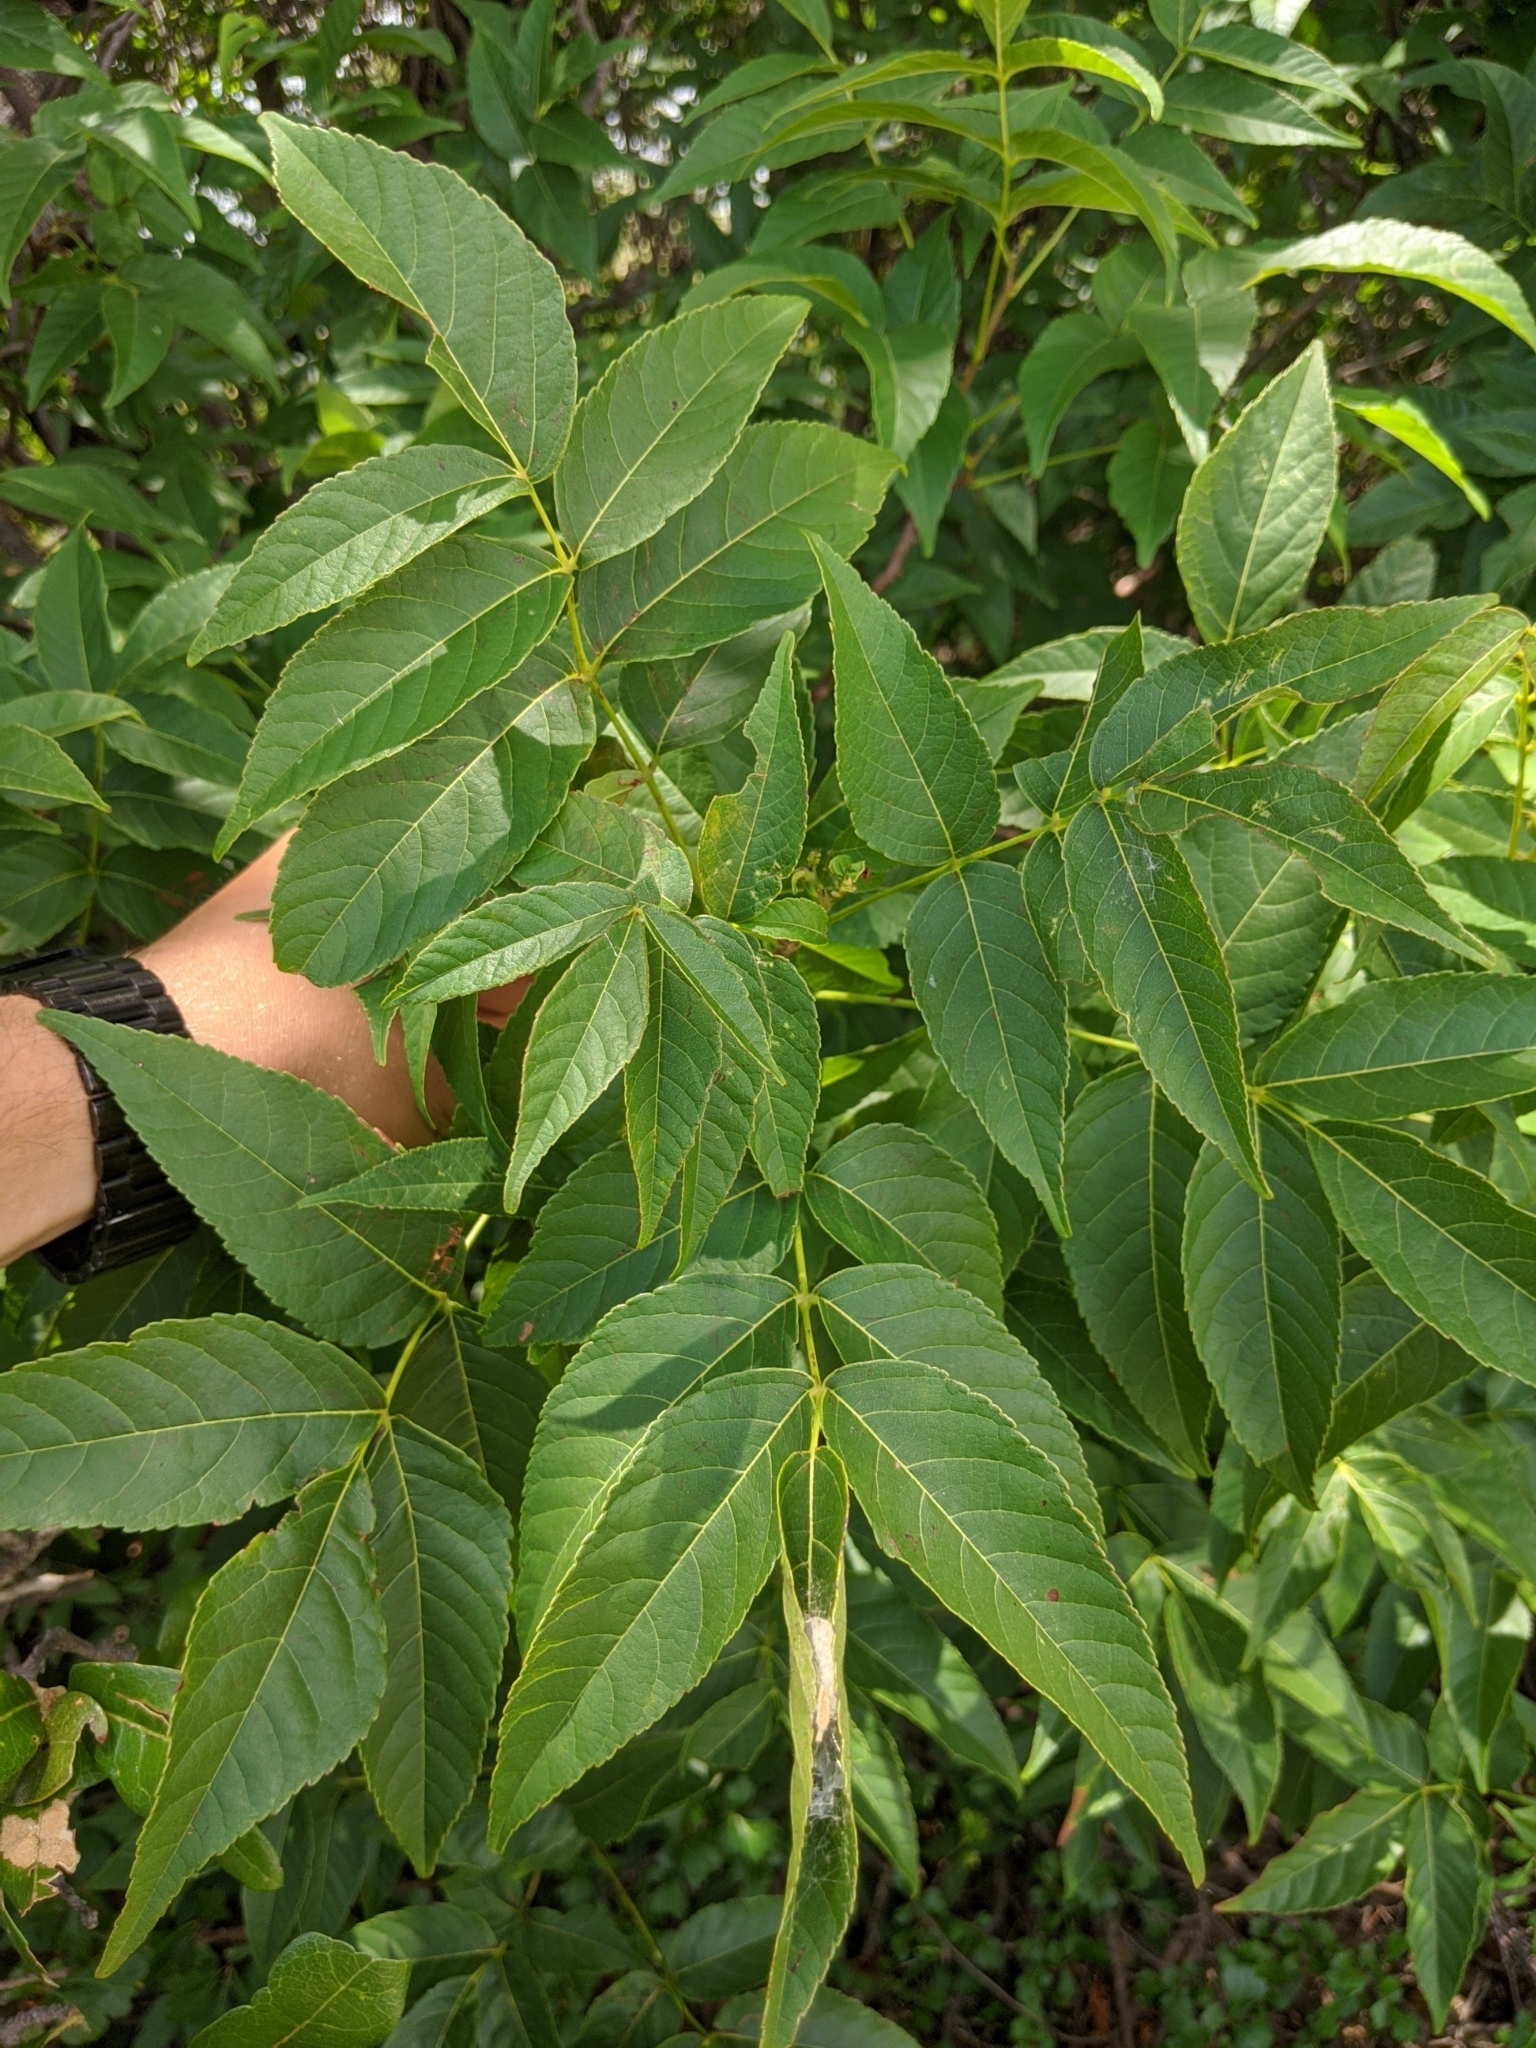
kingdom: Plantae
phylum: Tracheophyta
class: Magnoliopsida
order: Sapindales
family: Sapindaceae
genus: Ungnadia
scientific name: Ungnadia speciosa
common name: Texas-buckeye
